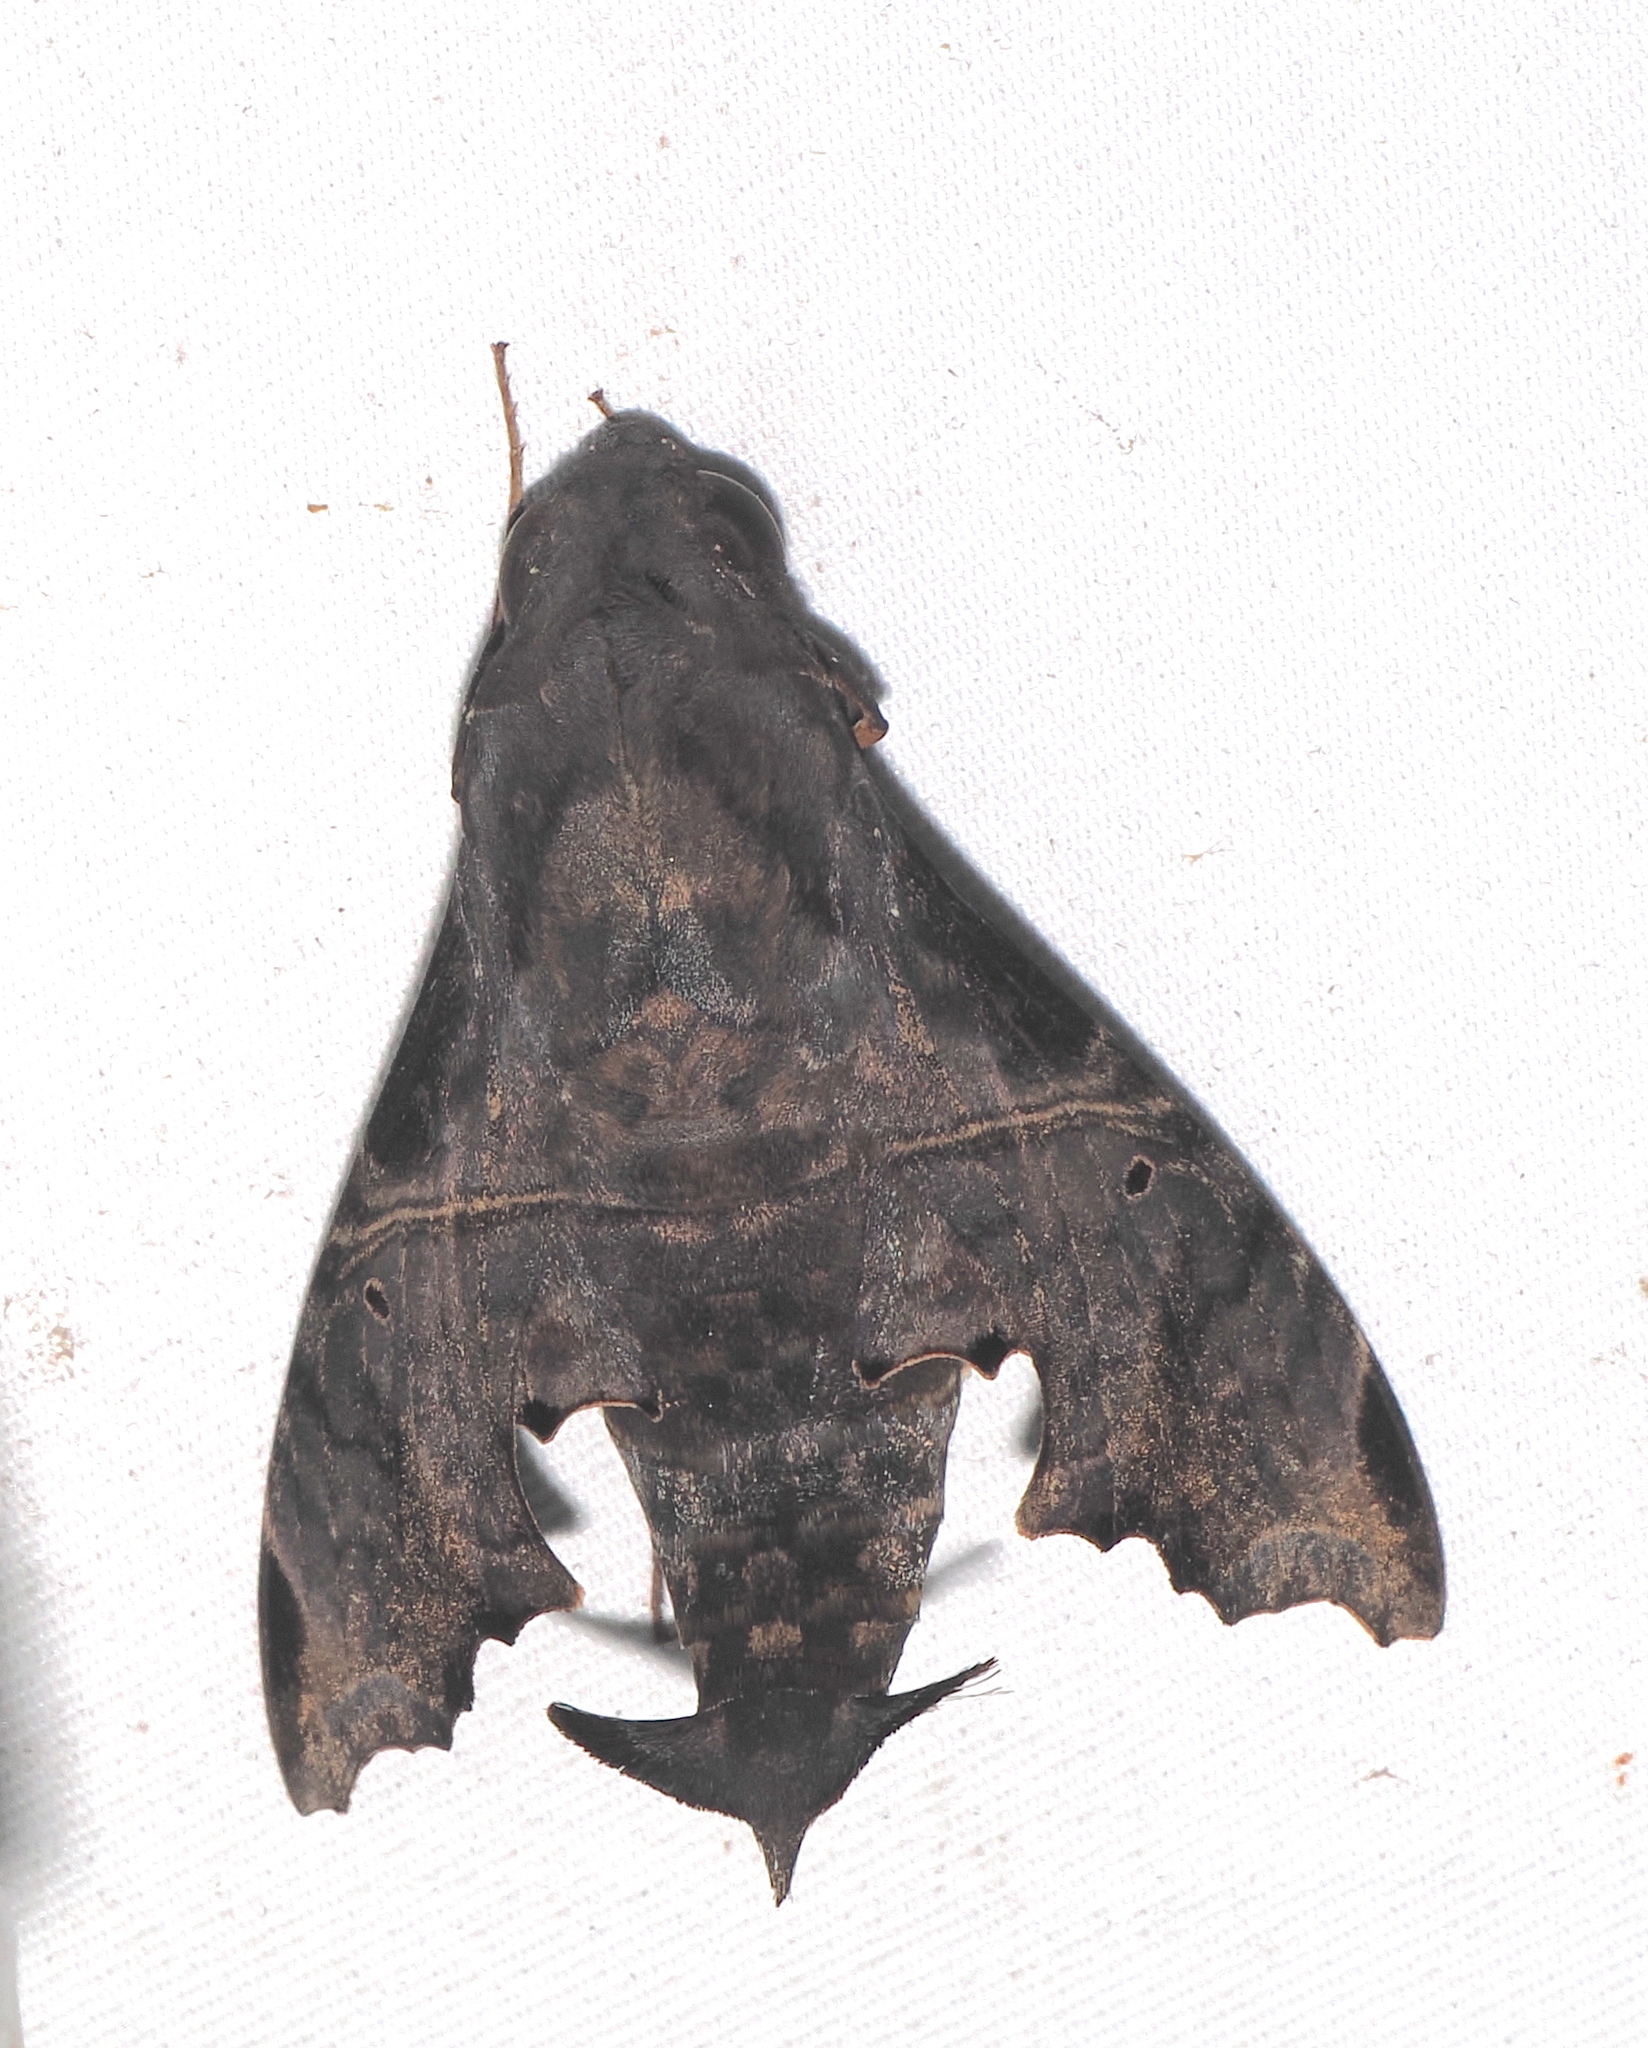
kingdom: Animalia
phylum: Arthropoda
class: Insecta
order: Lepidoptera
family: Sphingidae
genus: Enyo
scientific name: Enyo lugubris
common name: Mournful sphinx
